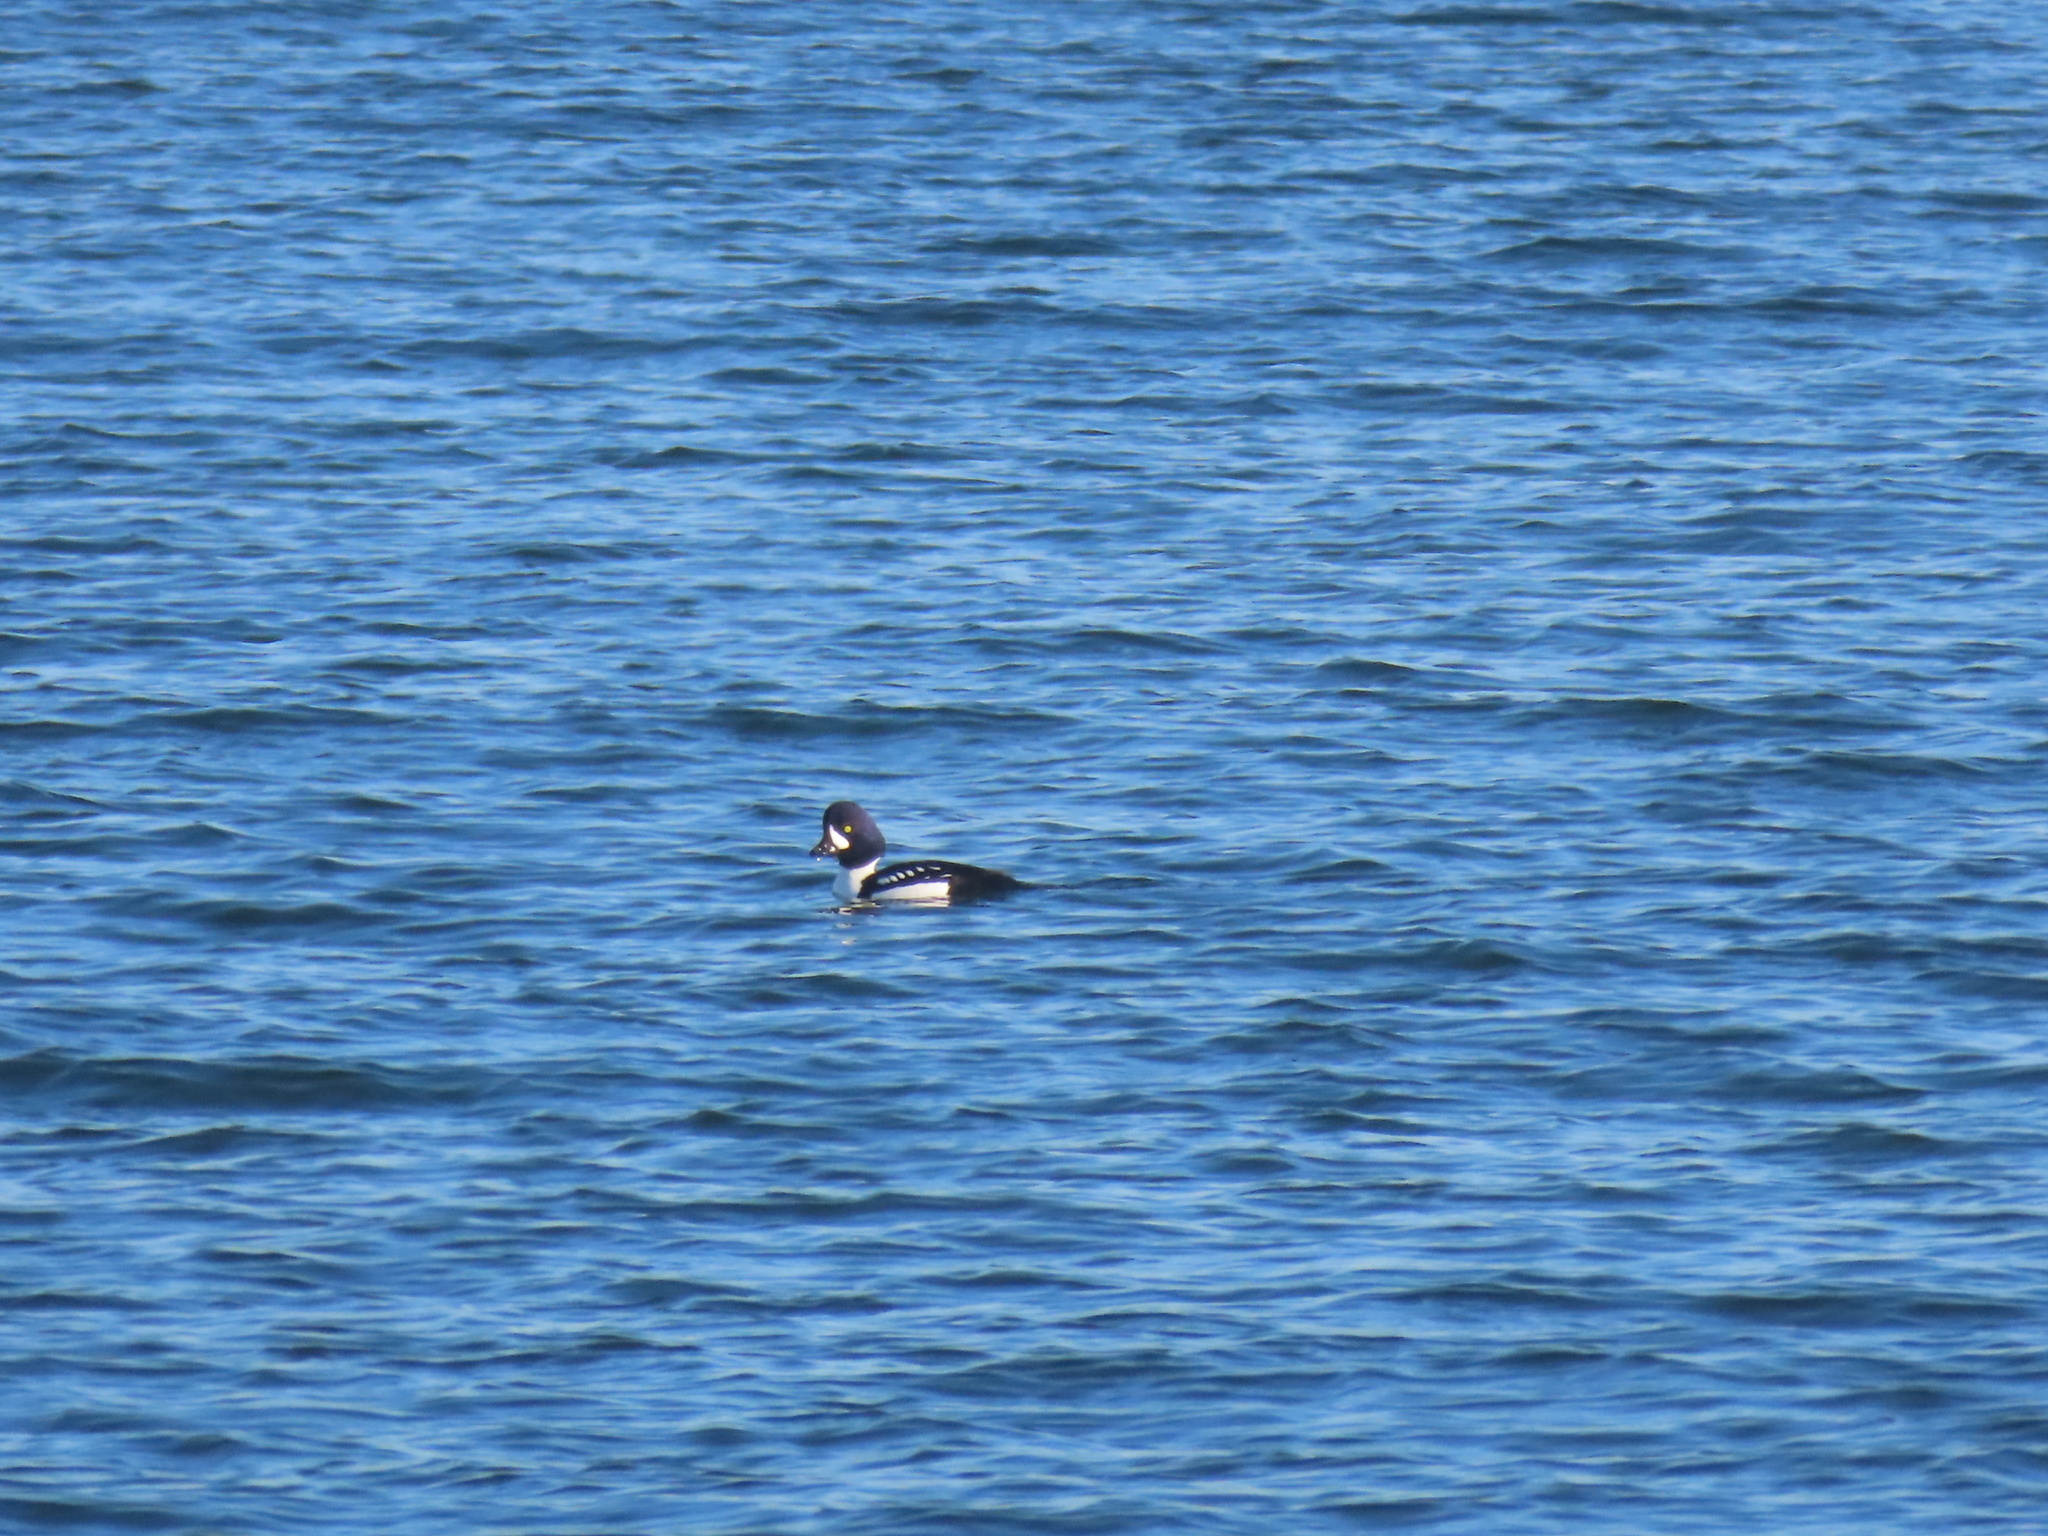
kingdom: Animalia
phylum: Chordata
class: Aves
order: Anseriformes
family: Anatidae
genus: Bucephala
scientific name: Bucephala islandica
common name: Barrow's goldeneye
